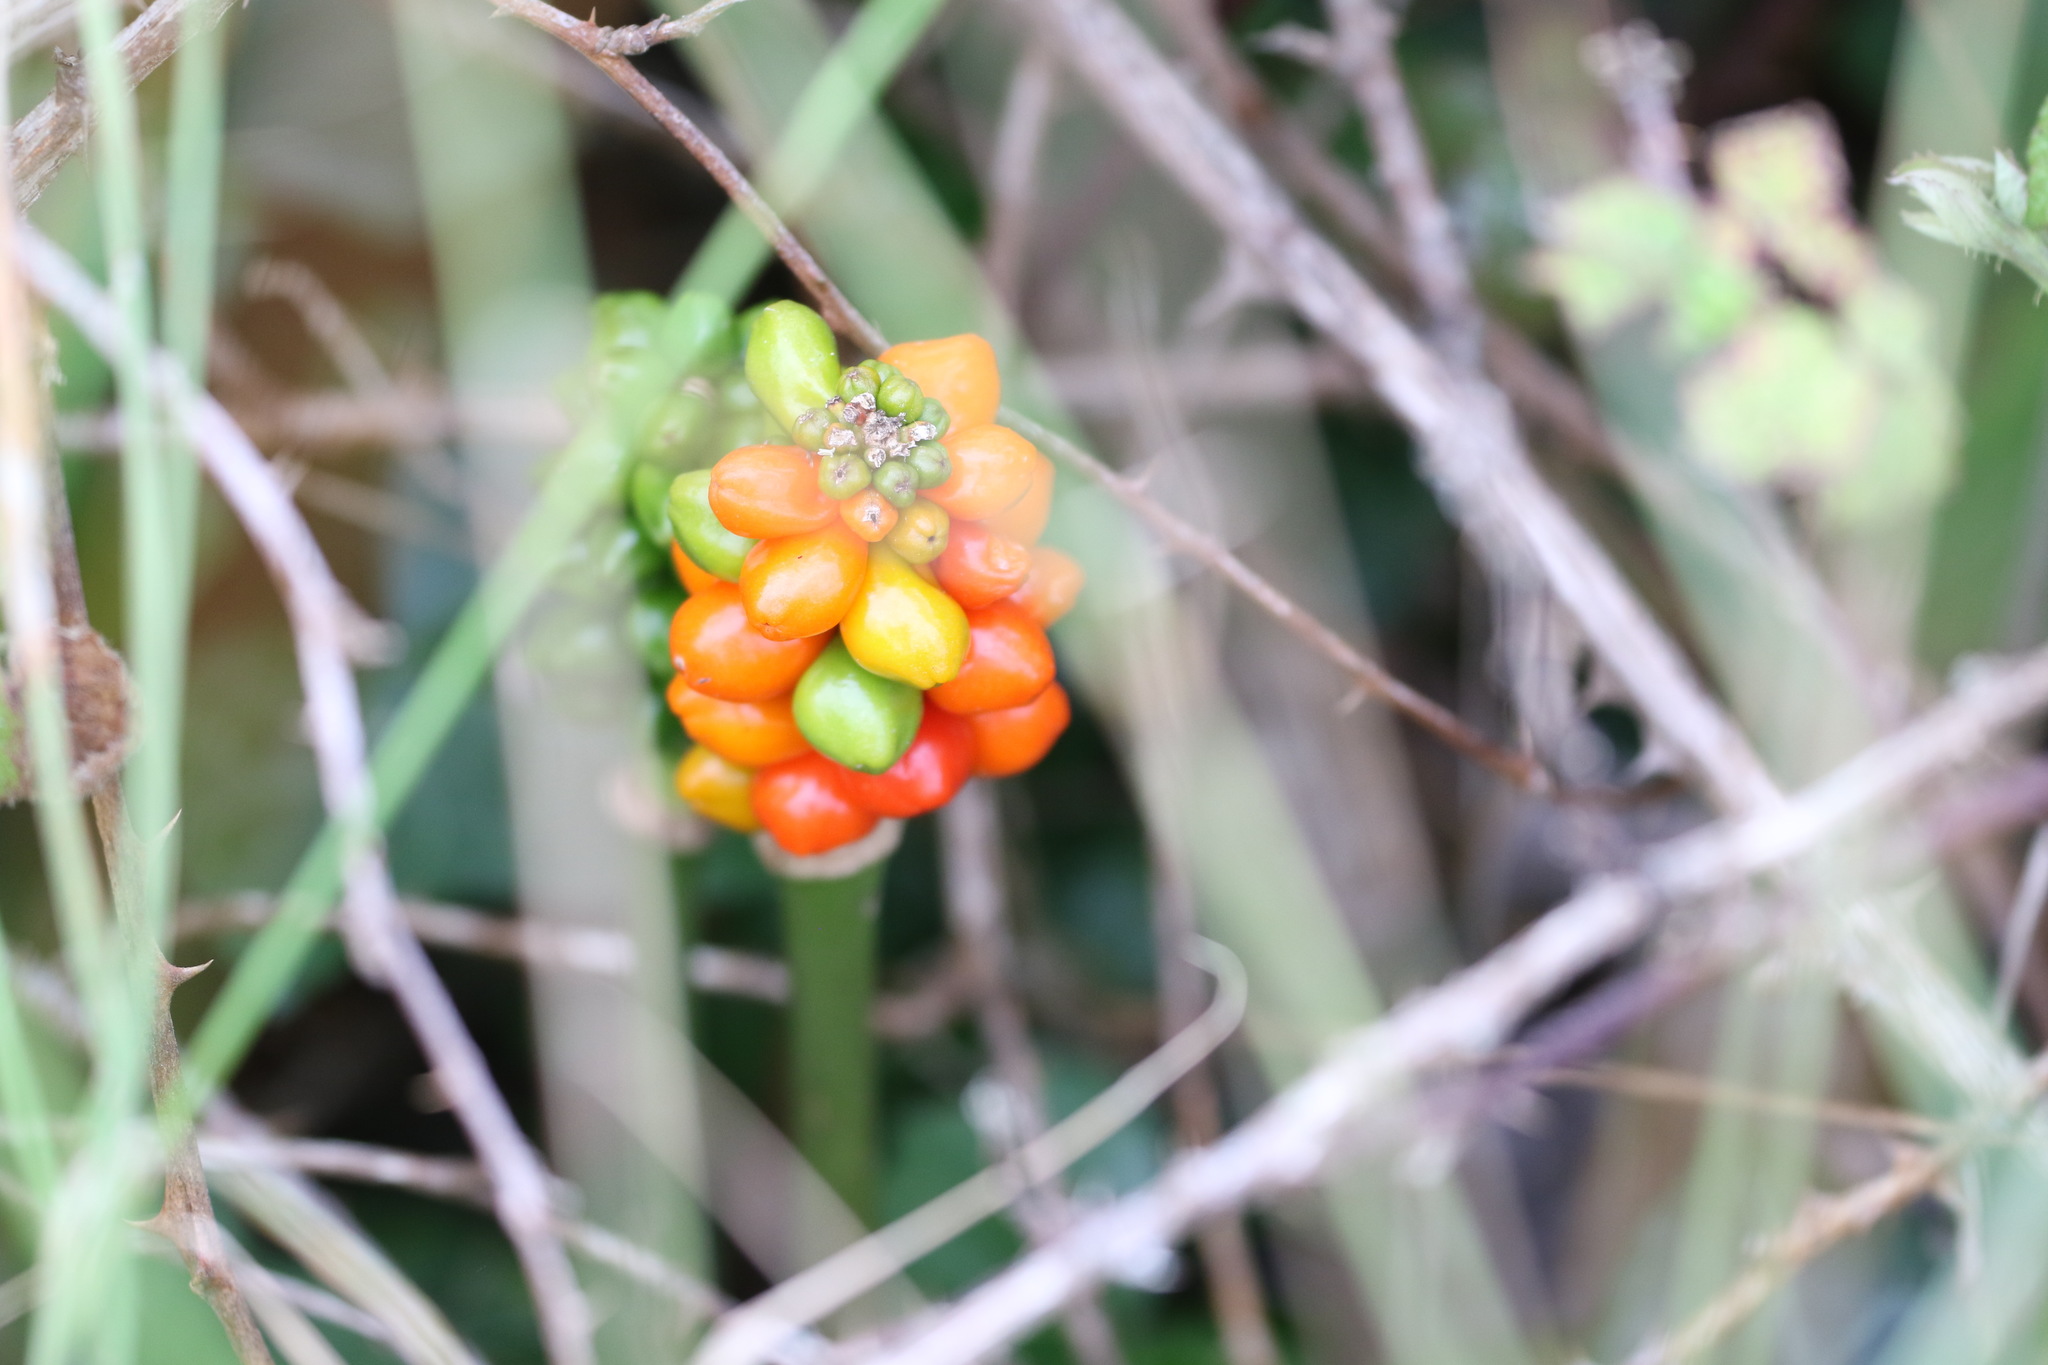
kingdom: Plantae
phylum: Tracheophyta
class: Liliopsida
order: Alismatales
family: Araceae
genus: Arum
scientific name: Arum maculatum
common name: Lords-and-ladies
